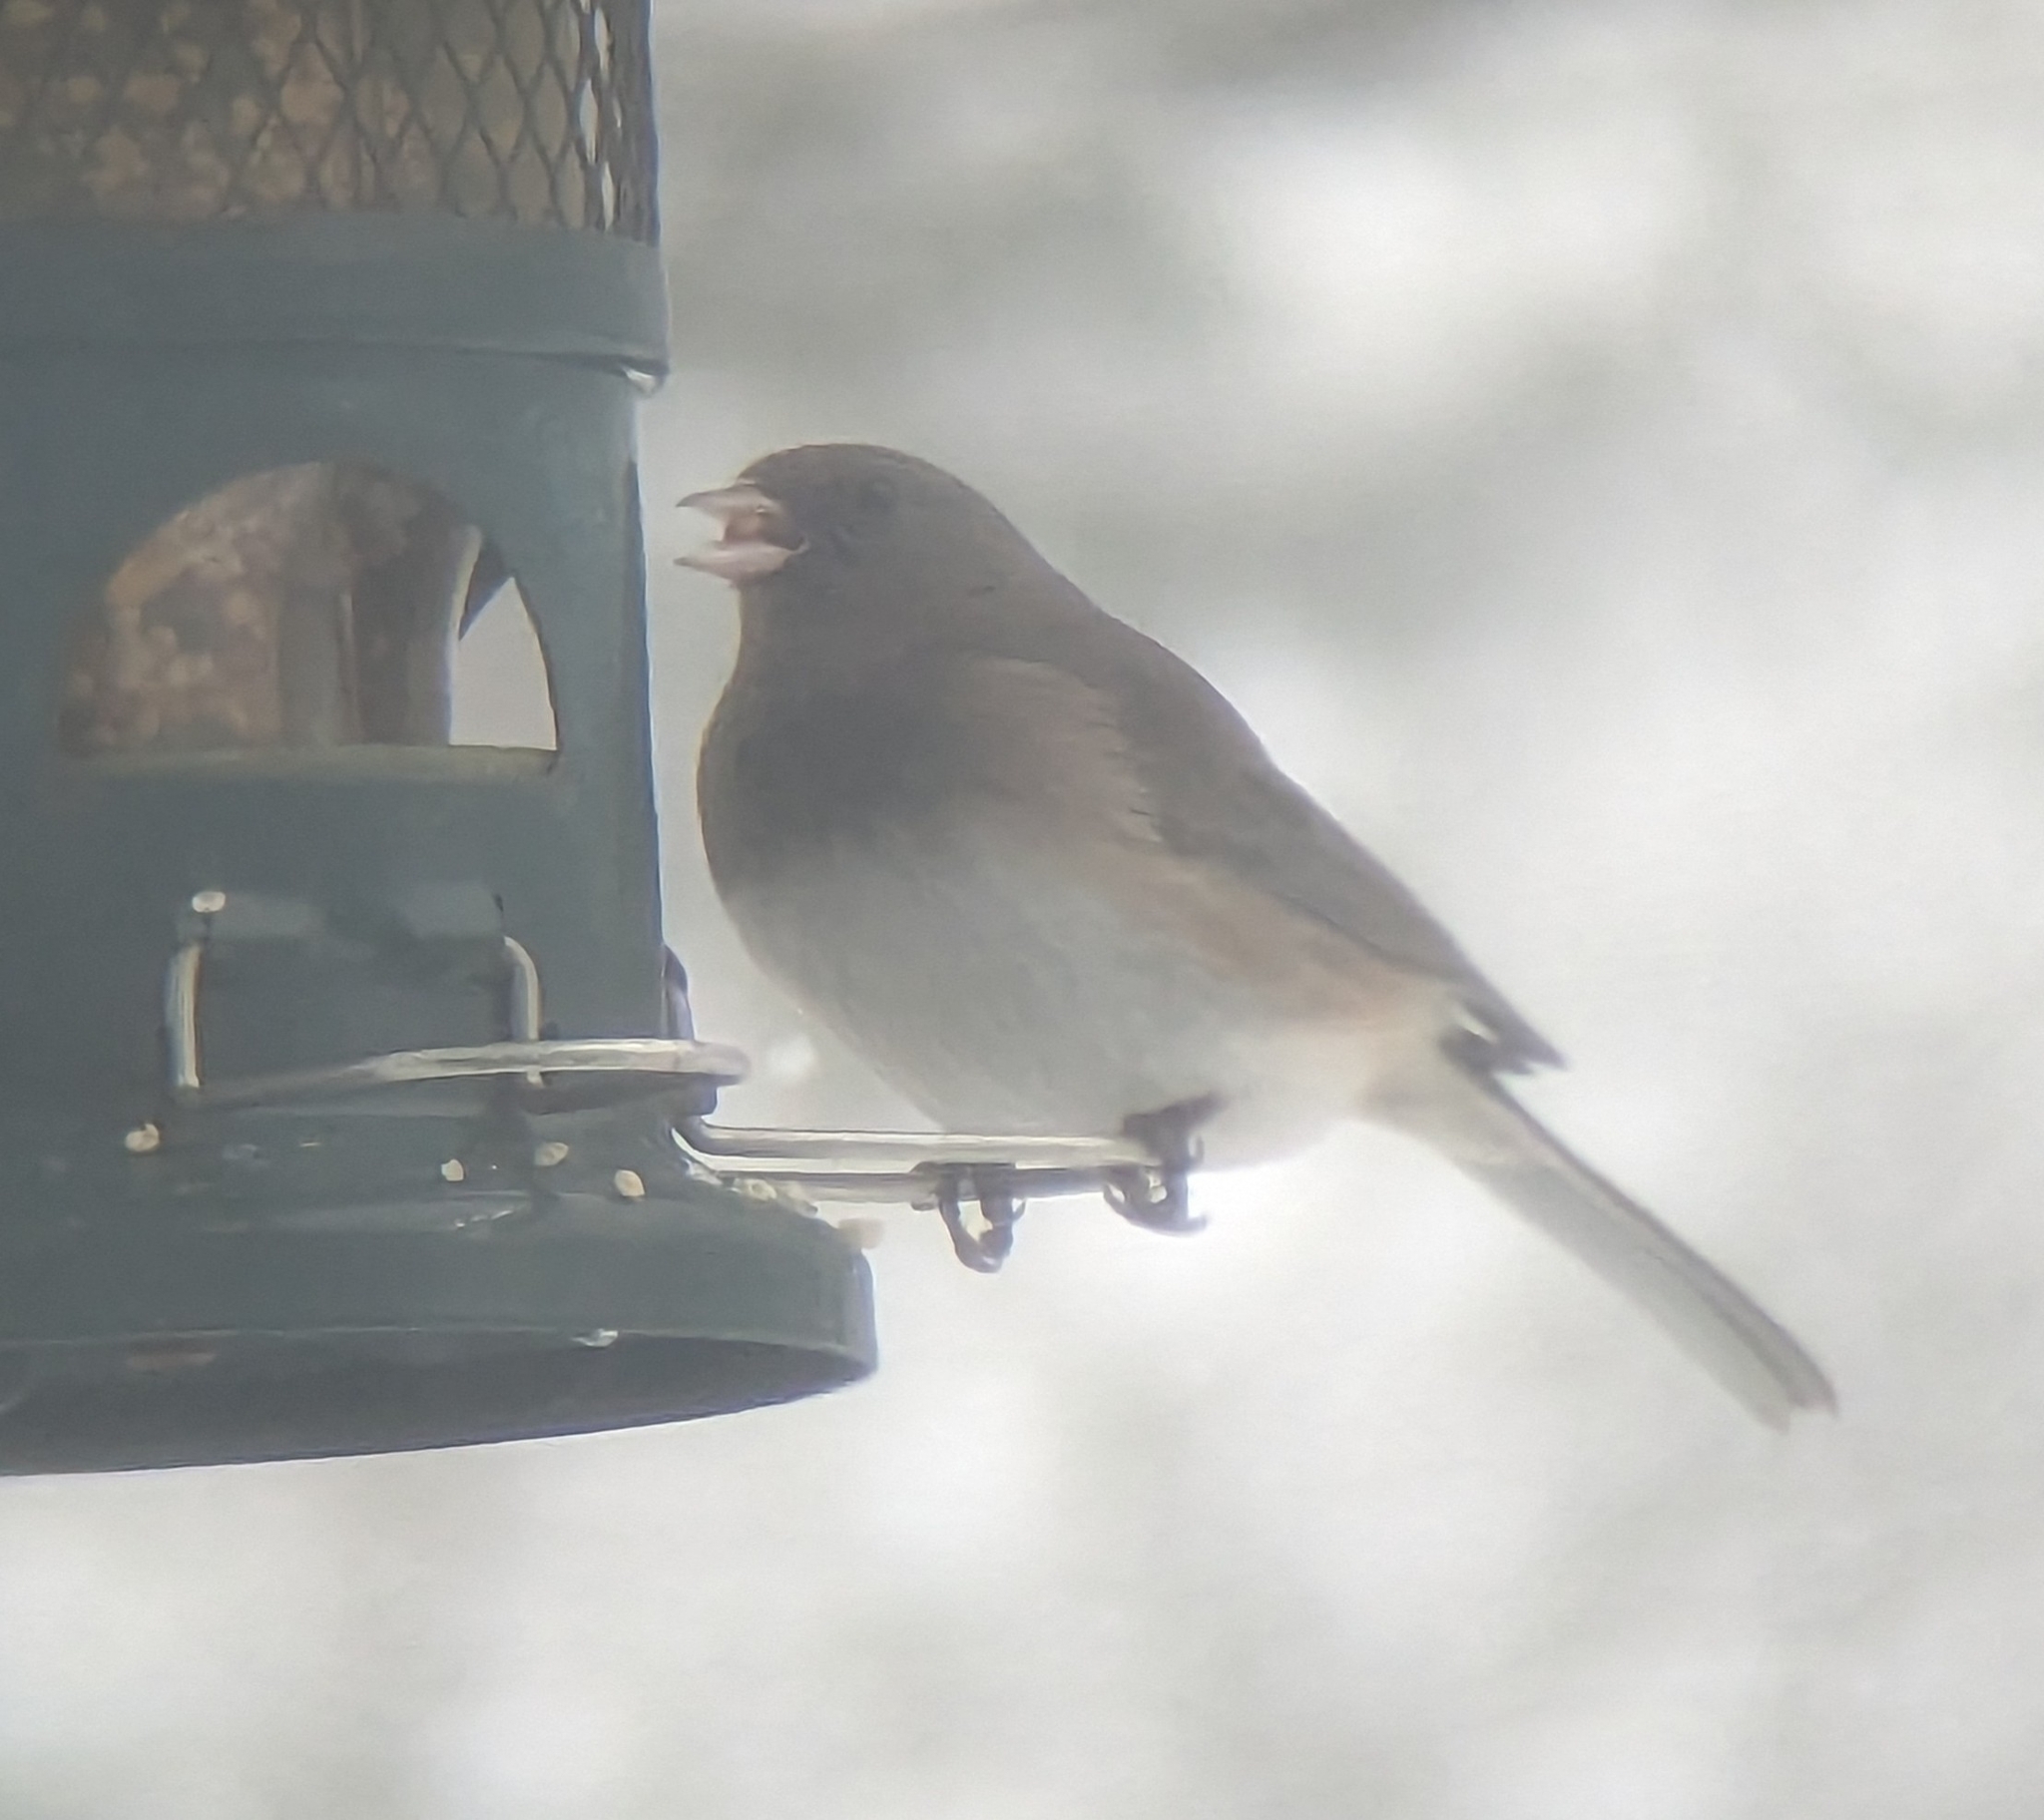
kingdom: Animalia
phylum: Chordata
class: Aves
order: Passeriformes
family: Passerellidae
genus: Junco
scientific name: Junco hyemalis
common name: Dark-eyed junco
